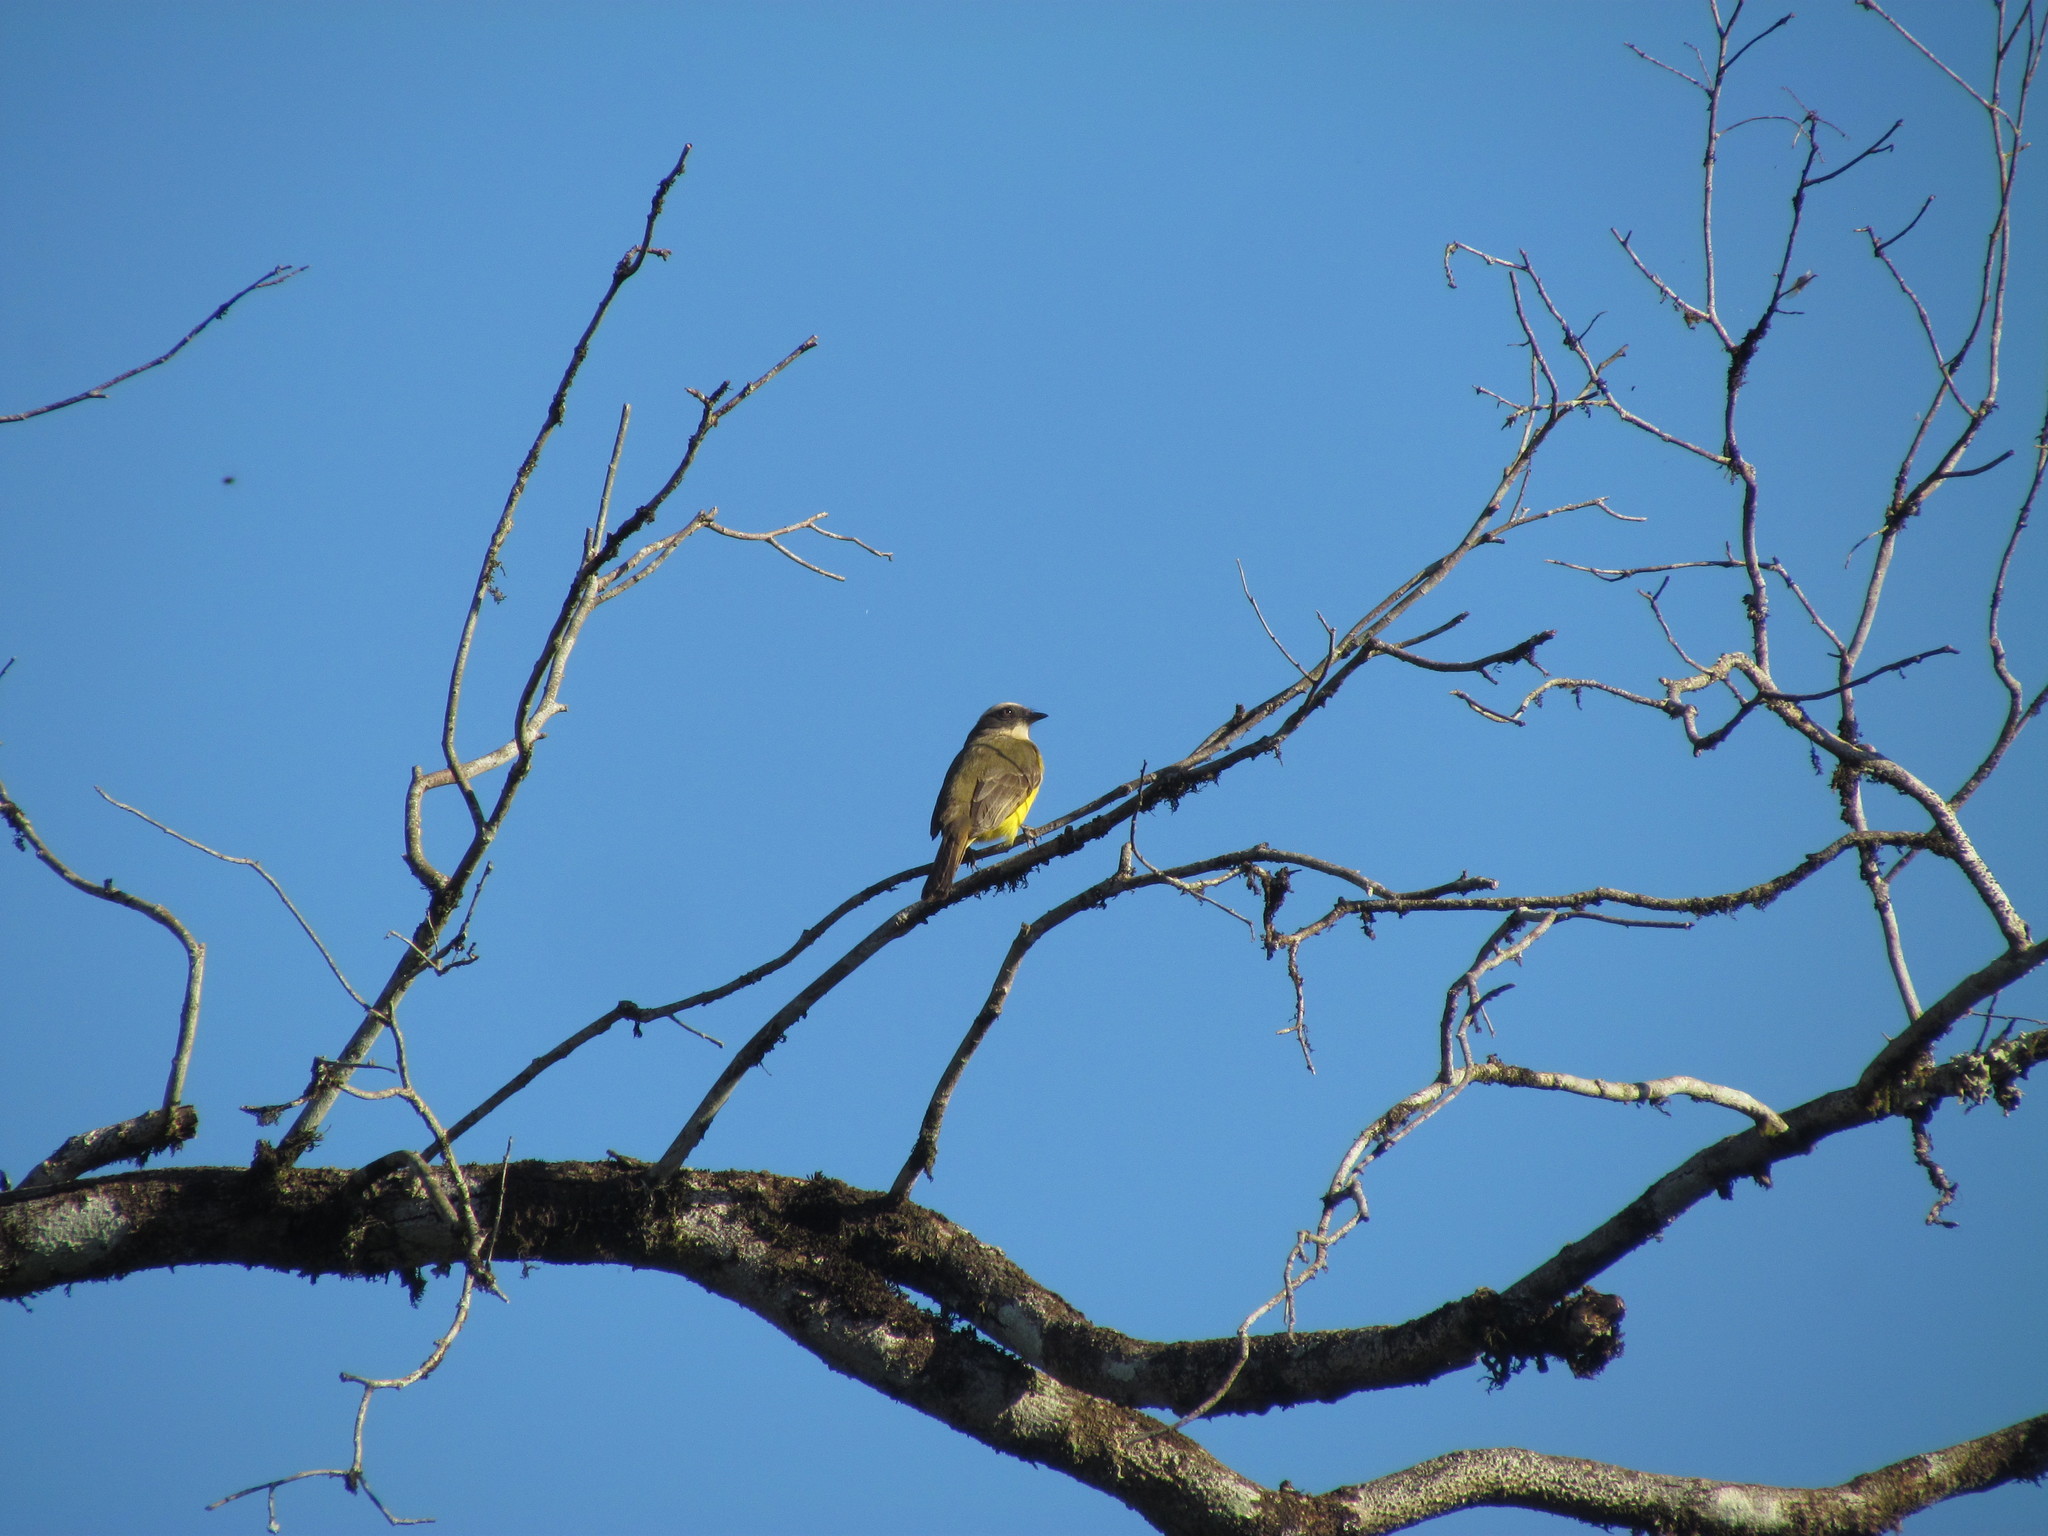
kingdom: Animalia
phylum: Chordata
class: Aves
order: Passeriformes
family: Tyrannidae
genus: Myiozetetes
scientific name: Myiozetetes similis
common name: Social flycatcher
